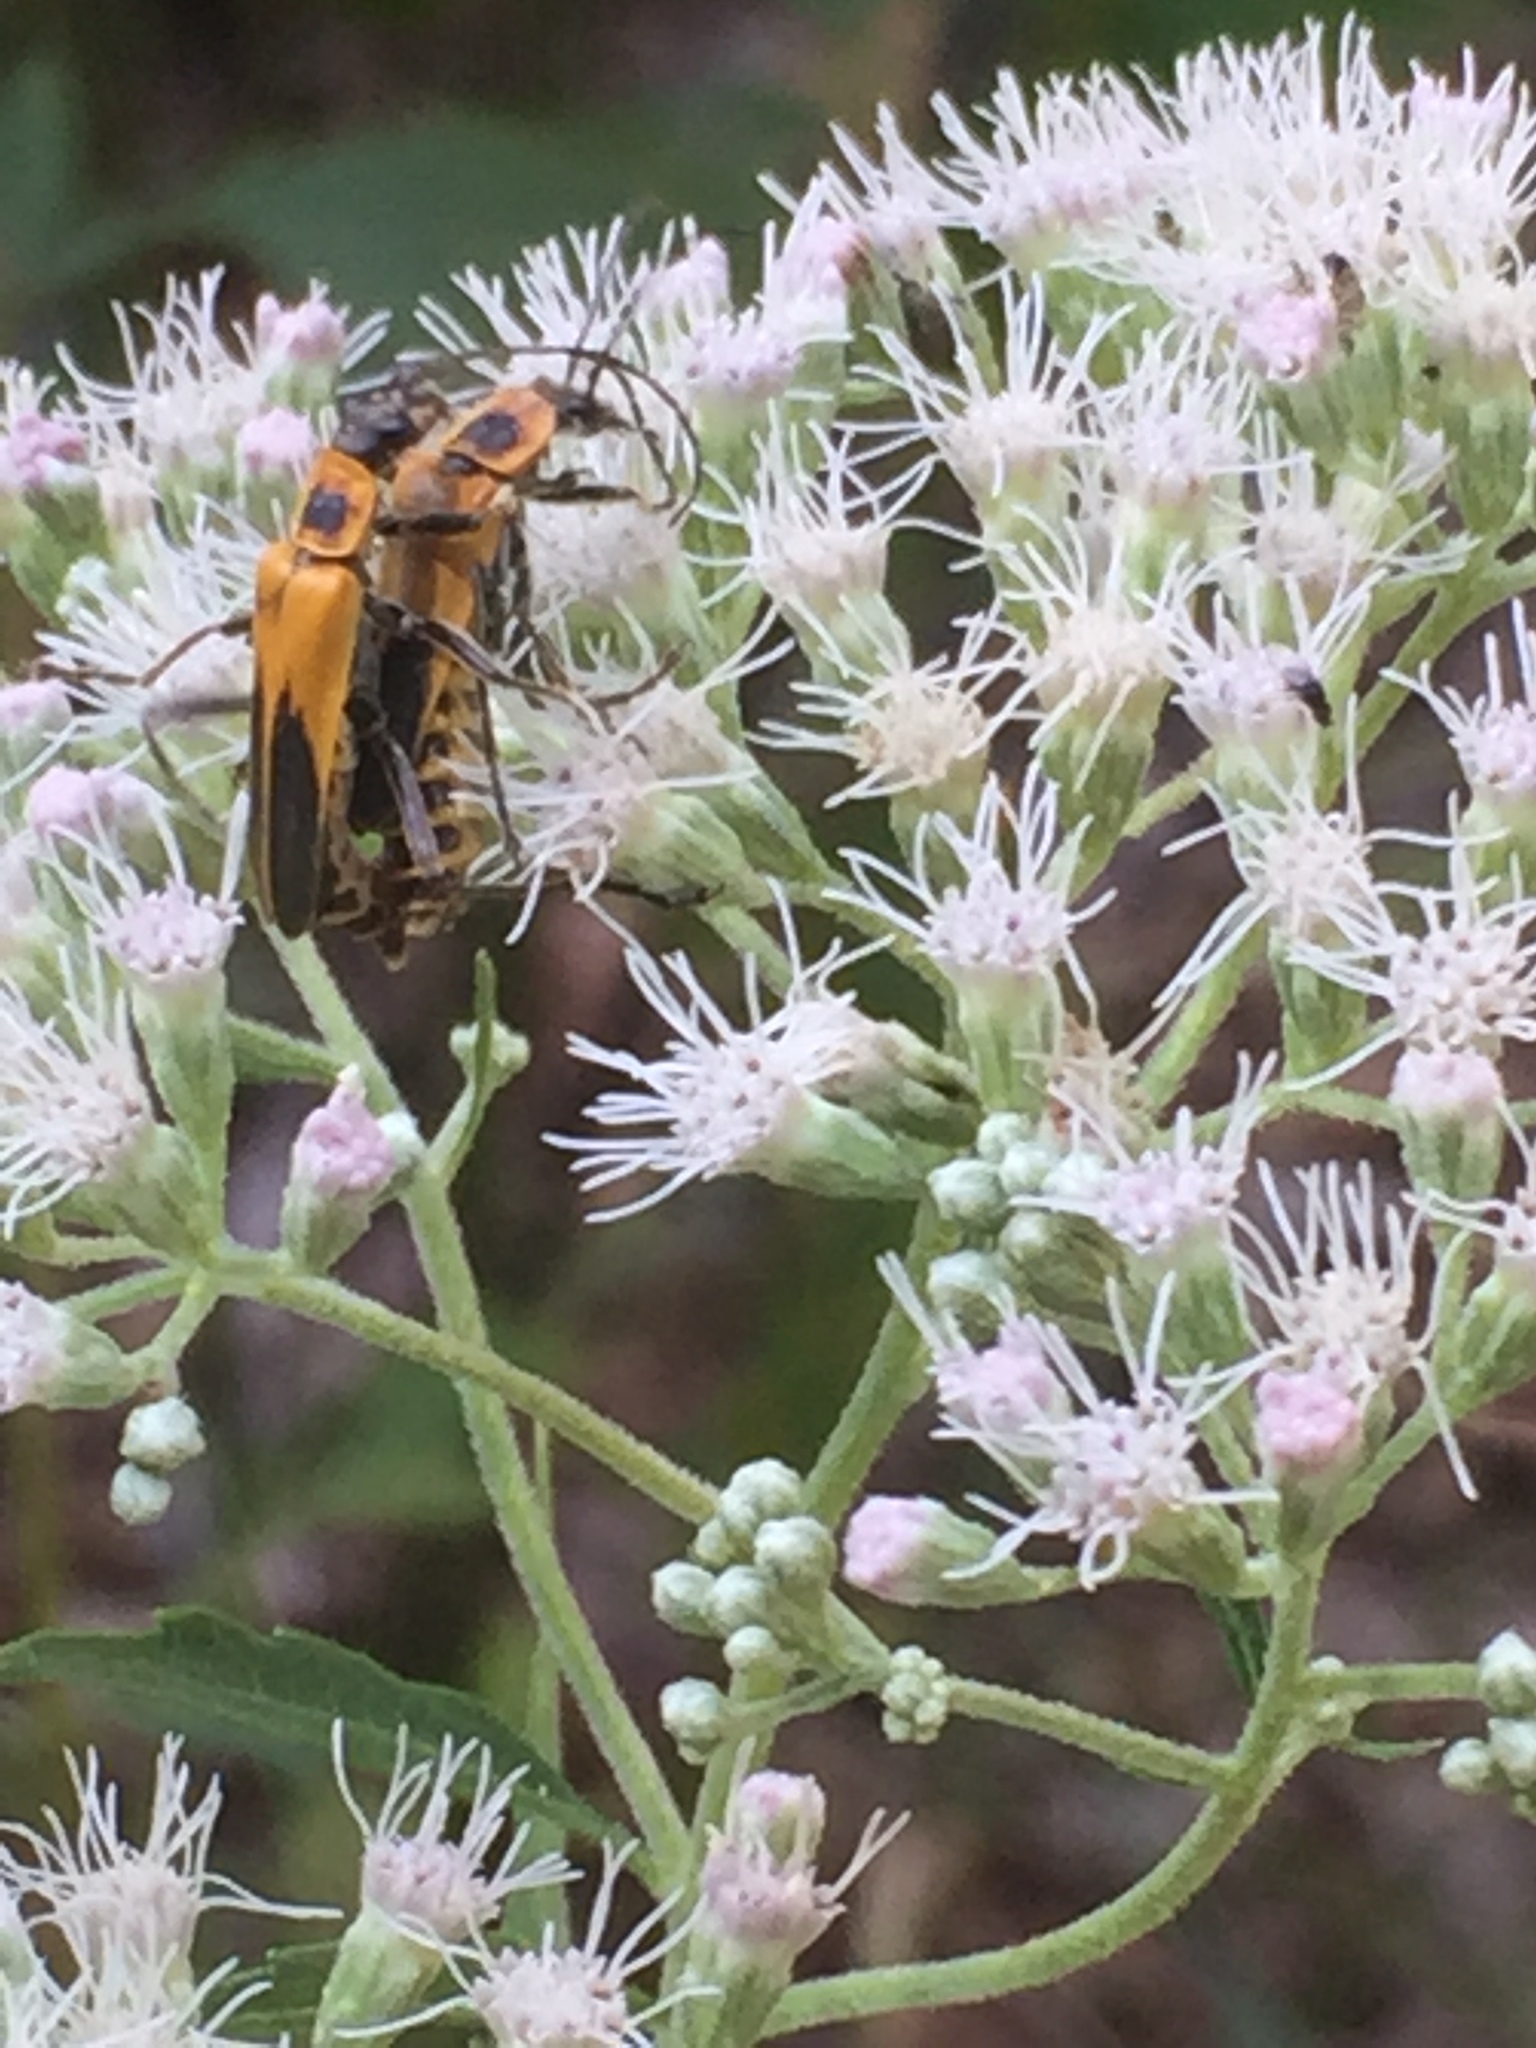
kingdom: Animalia
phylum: Arthropoda
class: Insecta
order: Coleoptera
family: Cantharidae
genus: Chauliognathus
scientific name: Chauliognathus pensylvanicus
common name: Goldenrod soldier beetle
